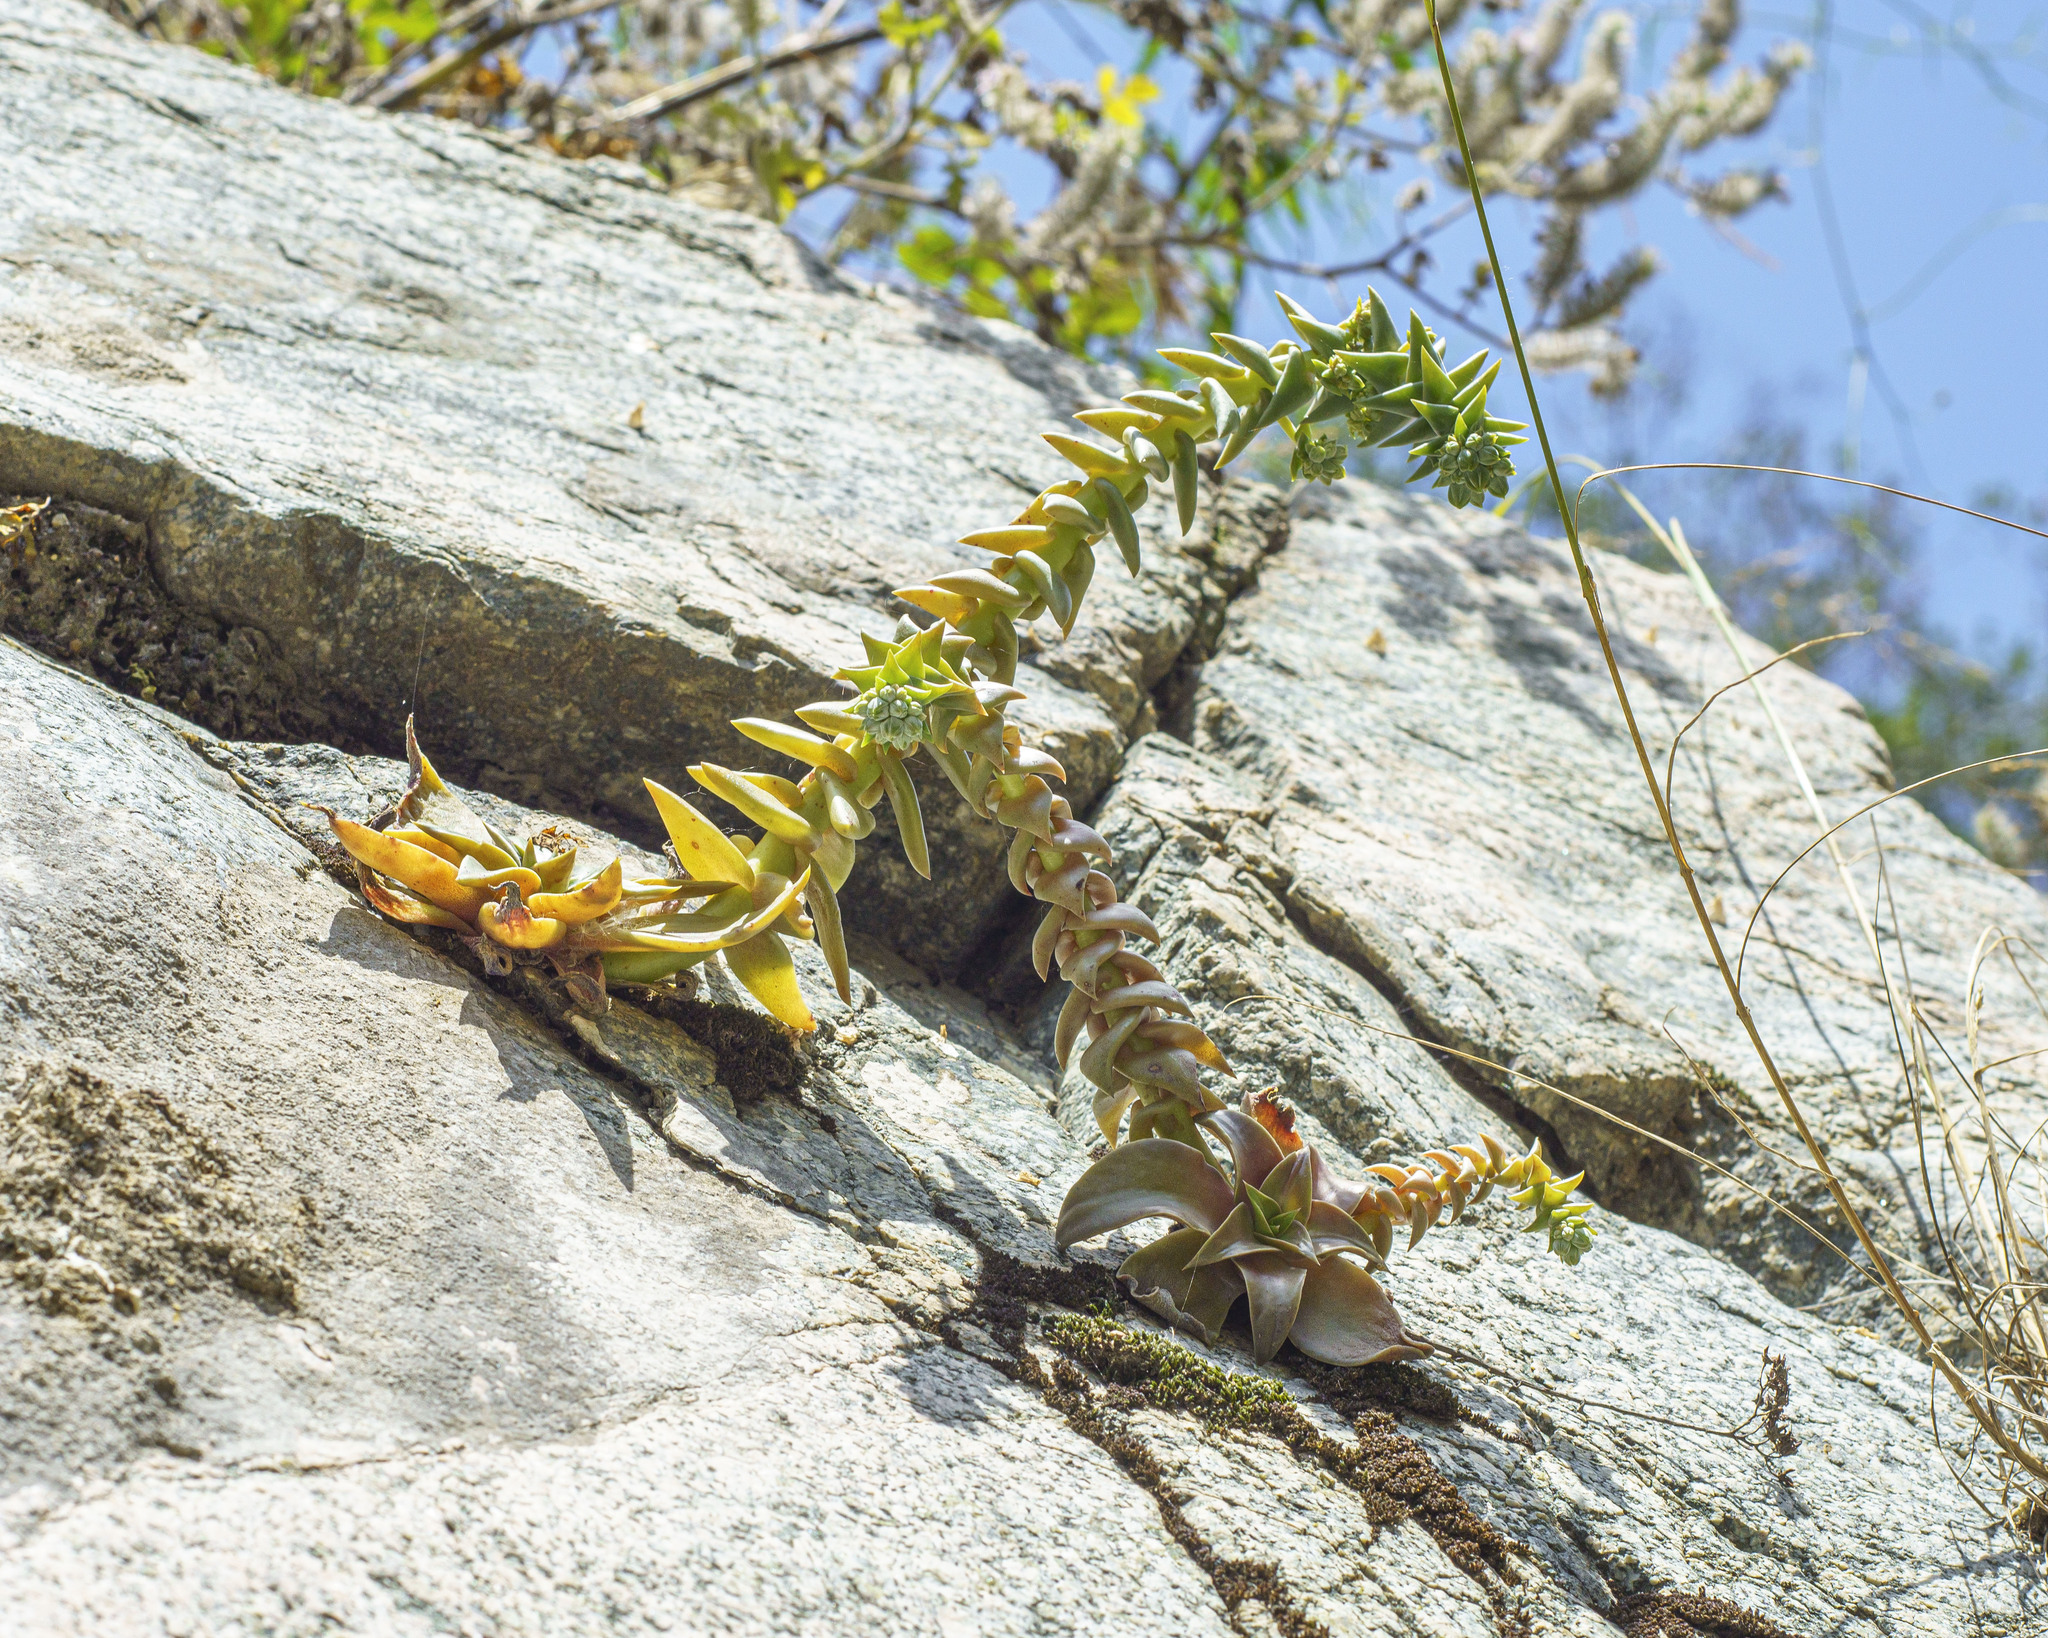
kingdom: Plantae
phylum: Tracheophyta
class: Magnoliopsida
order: Saxifragales
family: Crassulaceae
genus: Dudleya
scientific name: Dudleya cymosa
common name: Canyon dudleya
